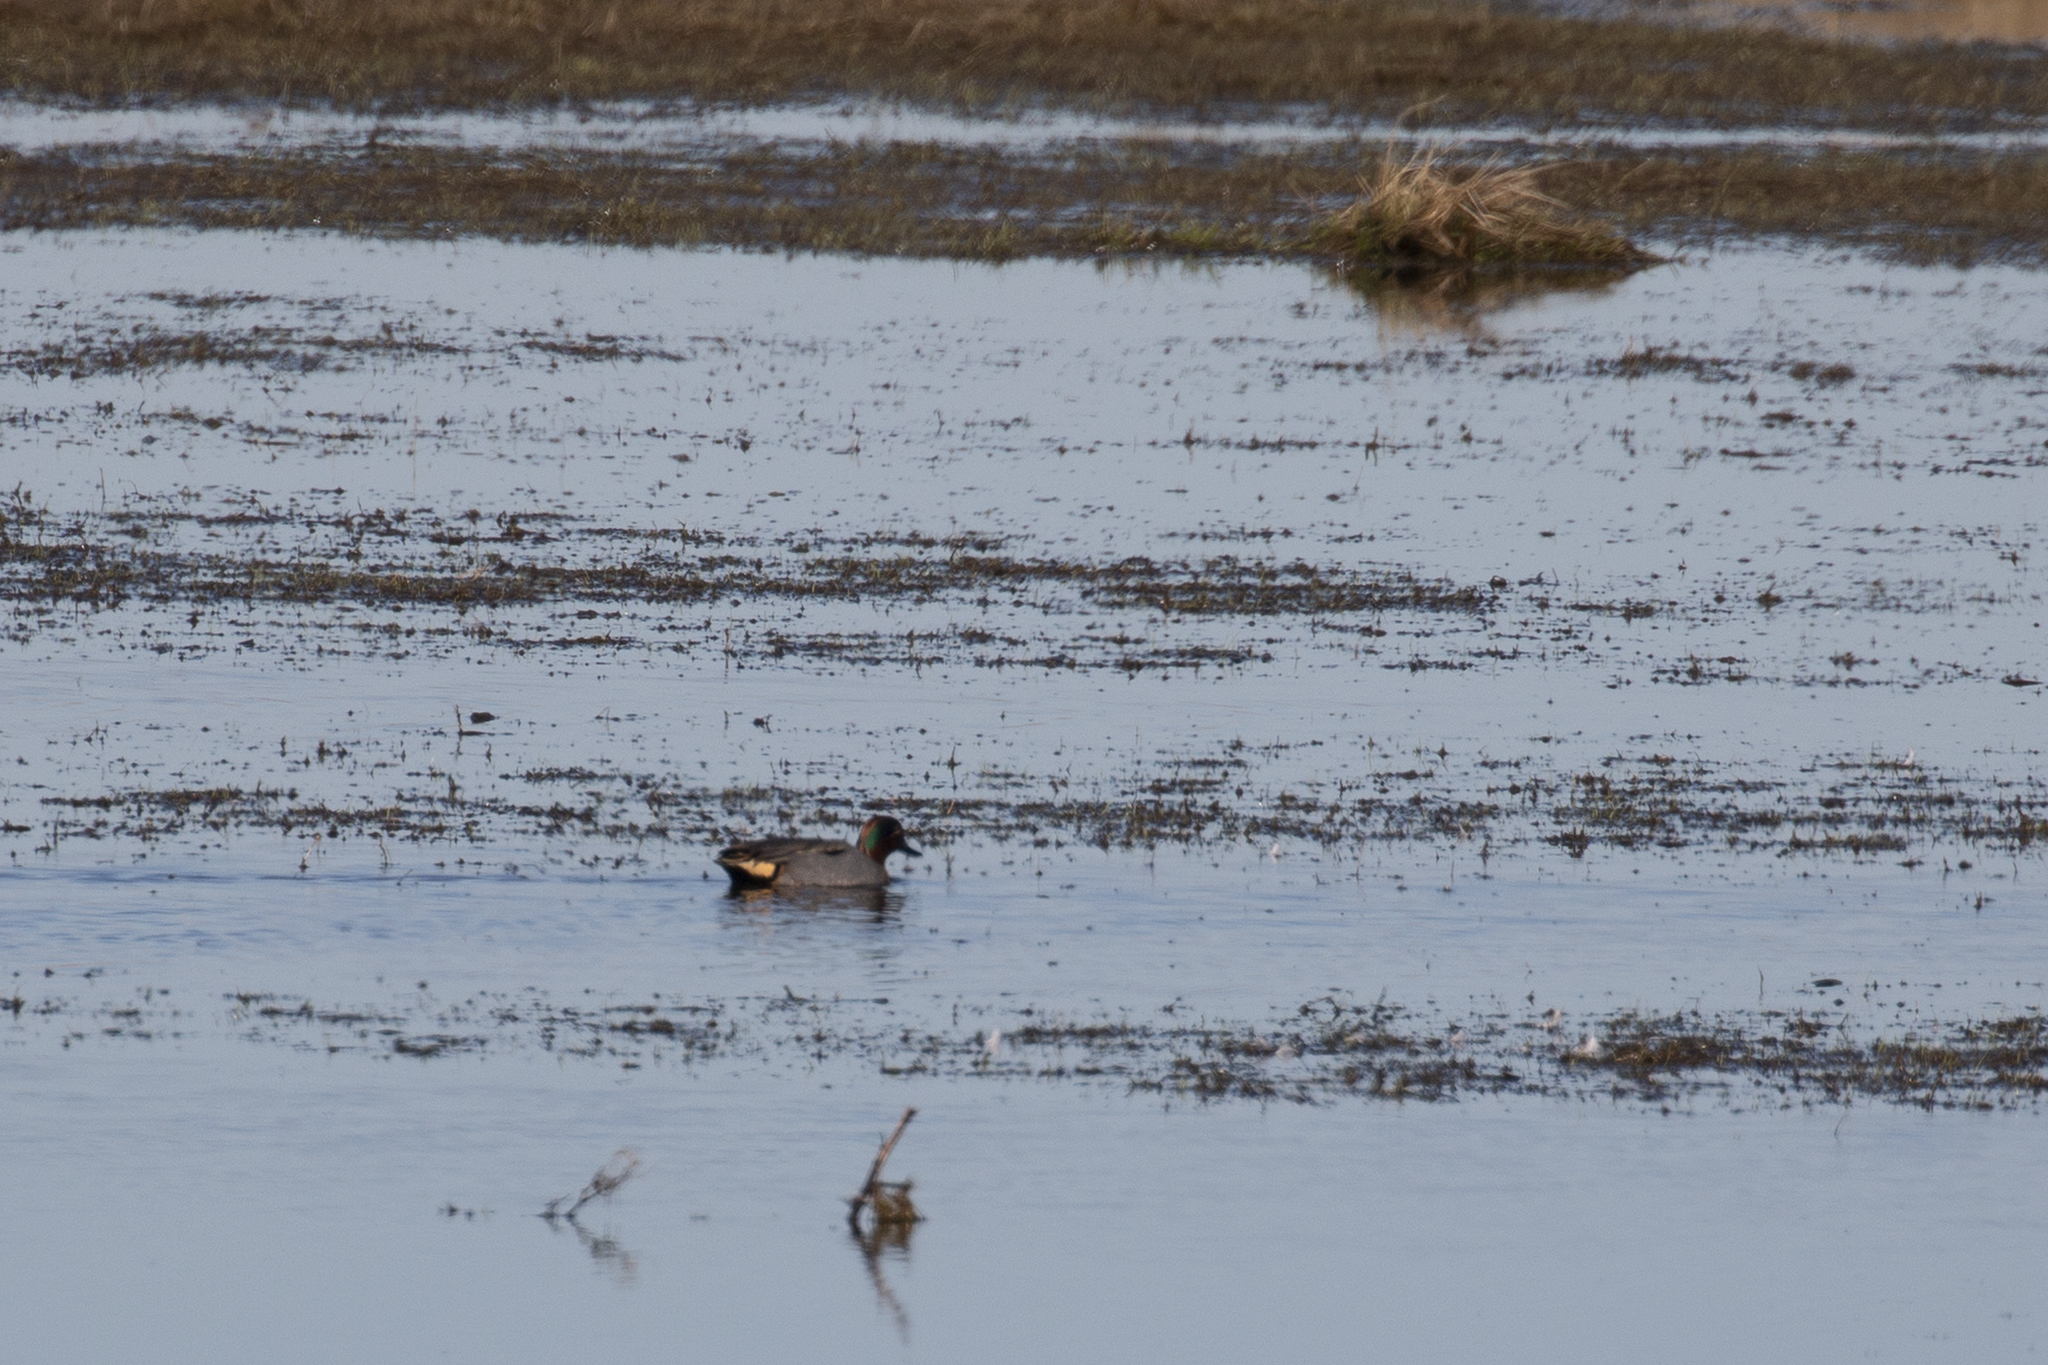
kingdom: Animalia
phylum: Chordata
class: Aves
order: Anseriformes
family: Anatidae
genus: Anas
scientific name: Anas crecca
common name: Eurasian teal
